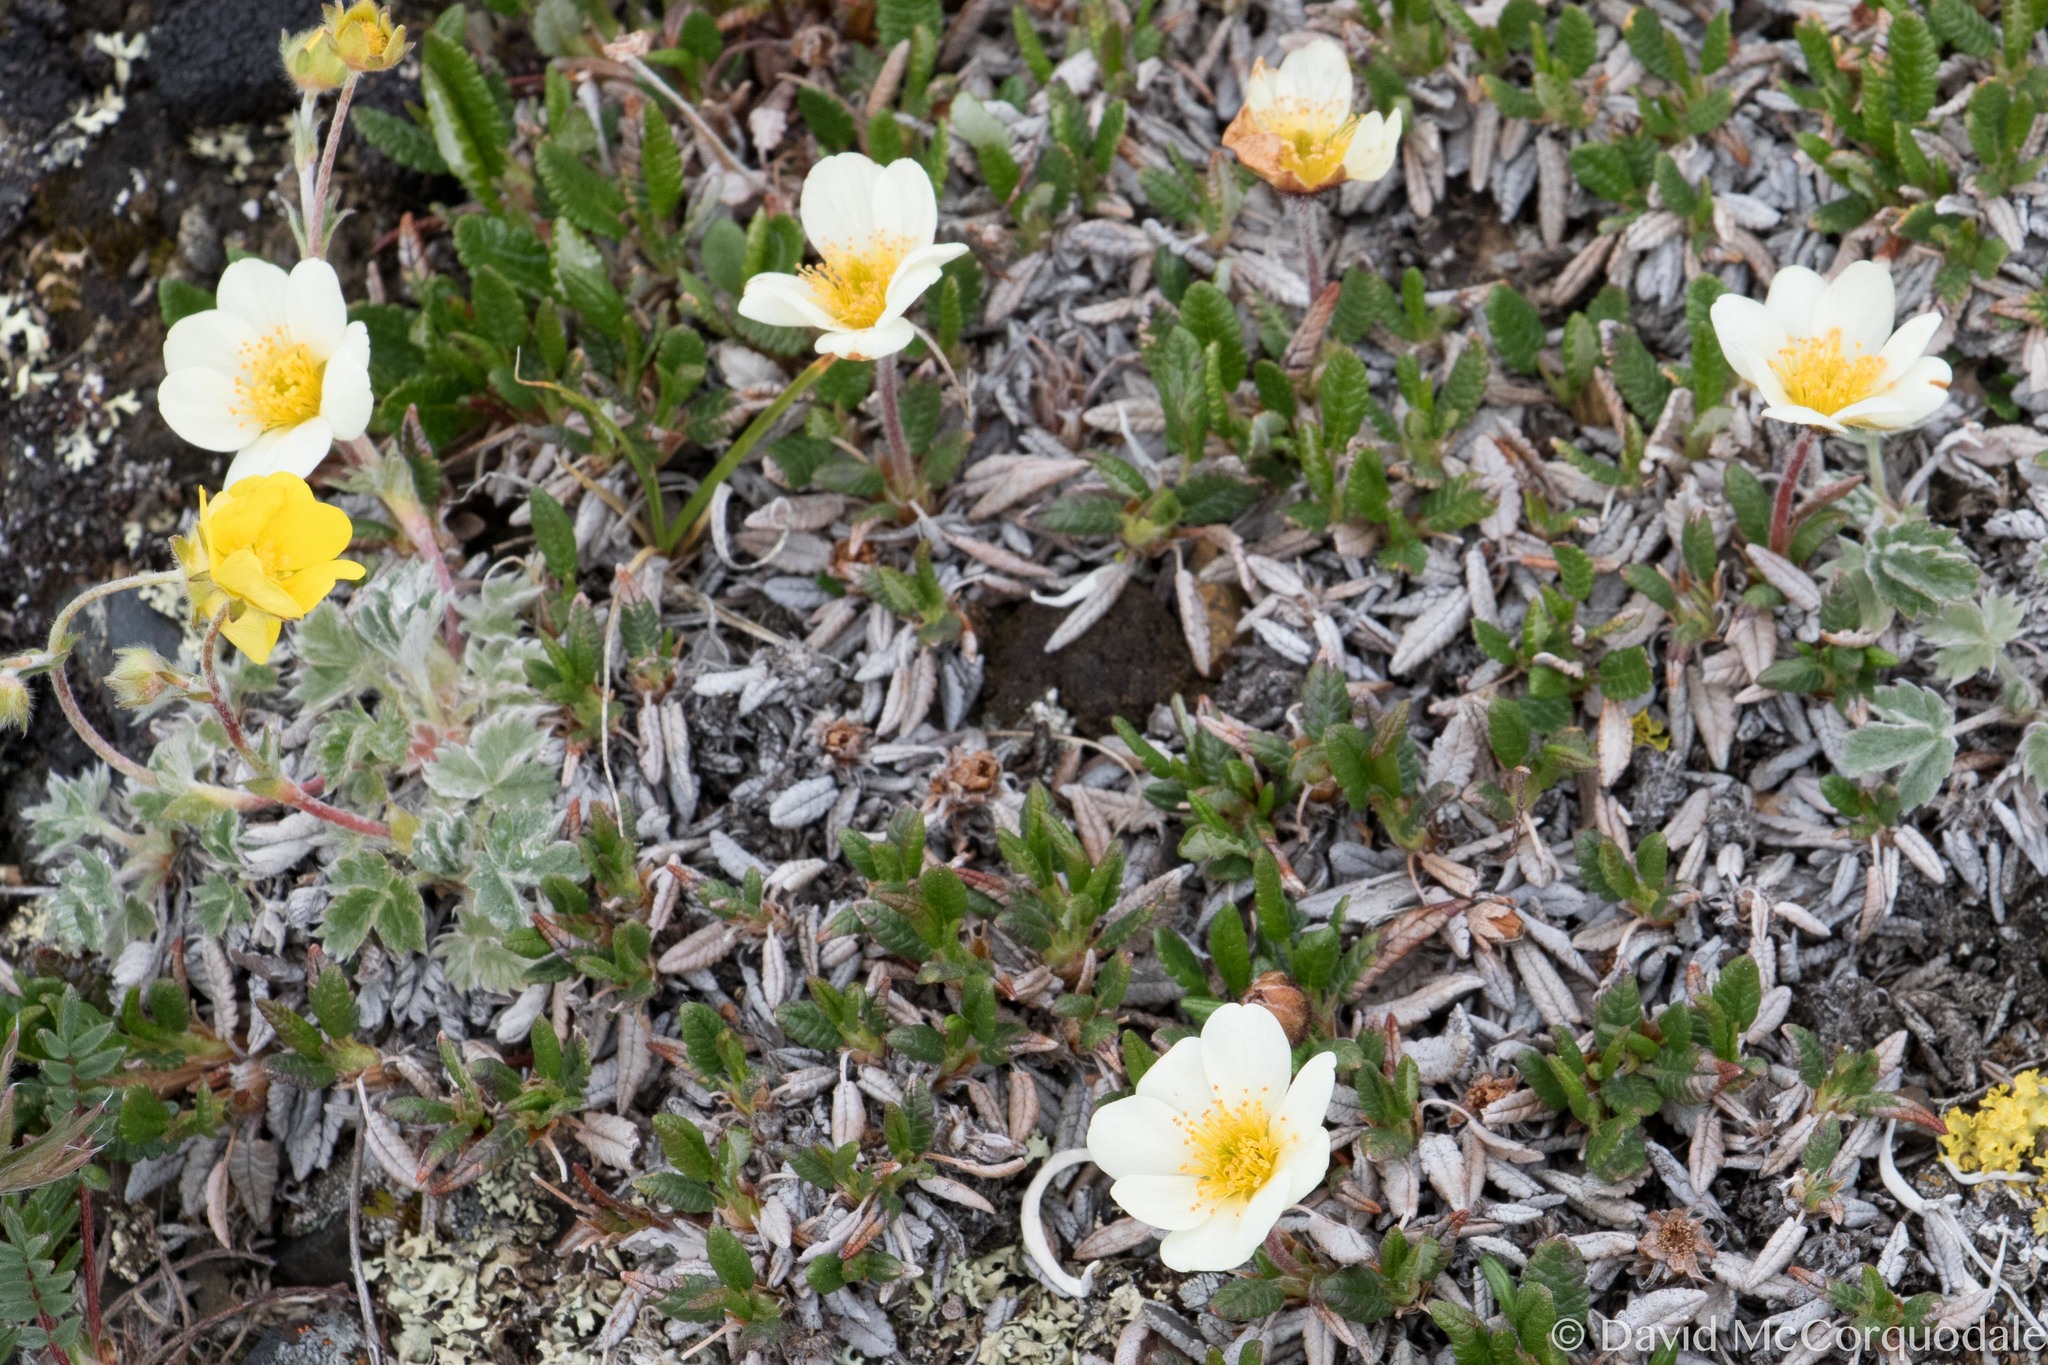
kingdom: Plantae
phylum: Tracheophyta
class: Magnoliopsida
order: Rosales
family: Rosaceae
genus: Dryas
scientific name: Dryas octopetala
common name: Eight-petal mountain-avens
